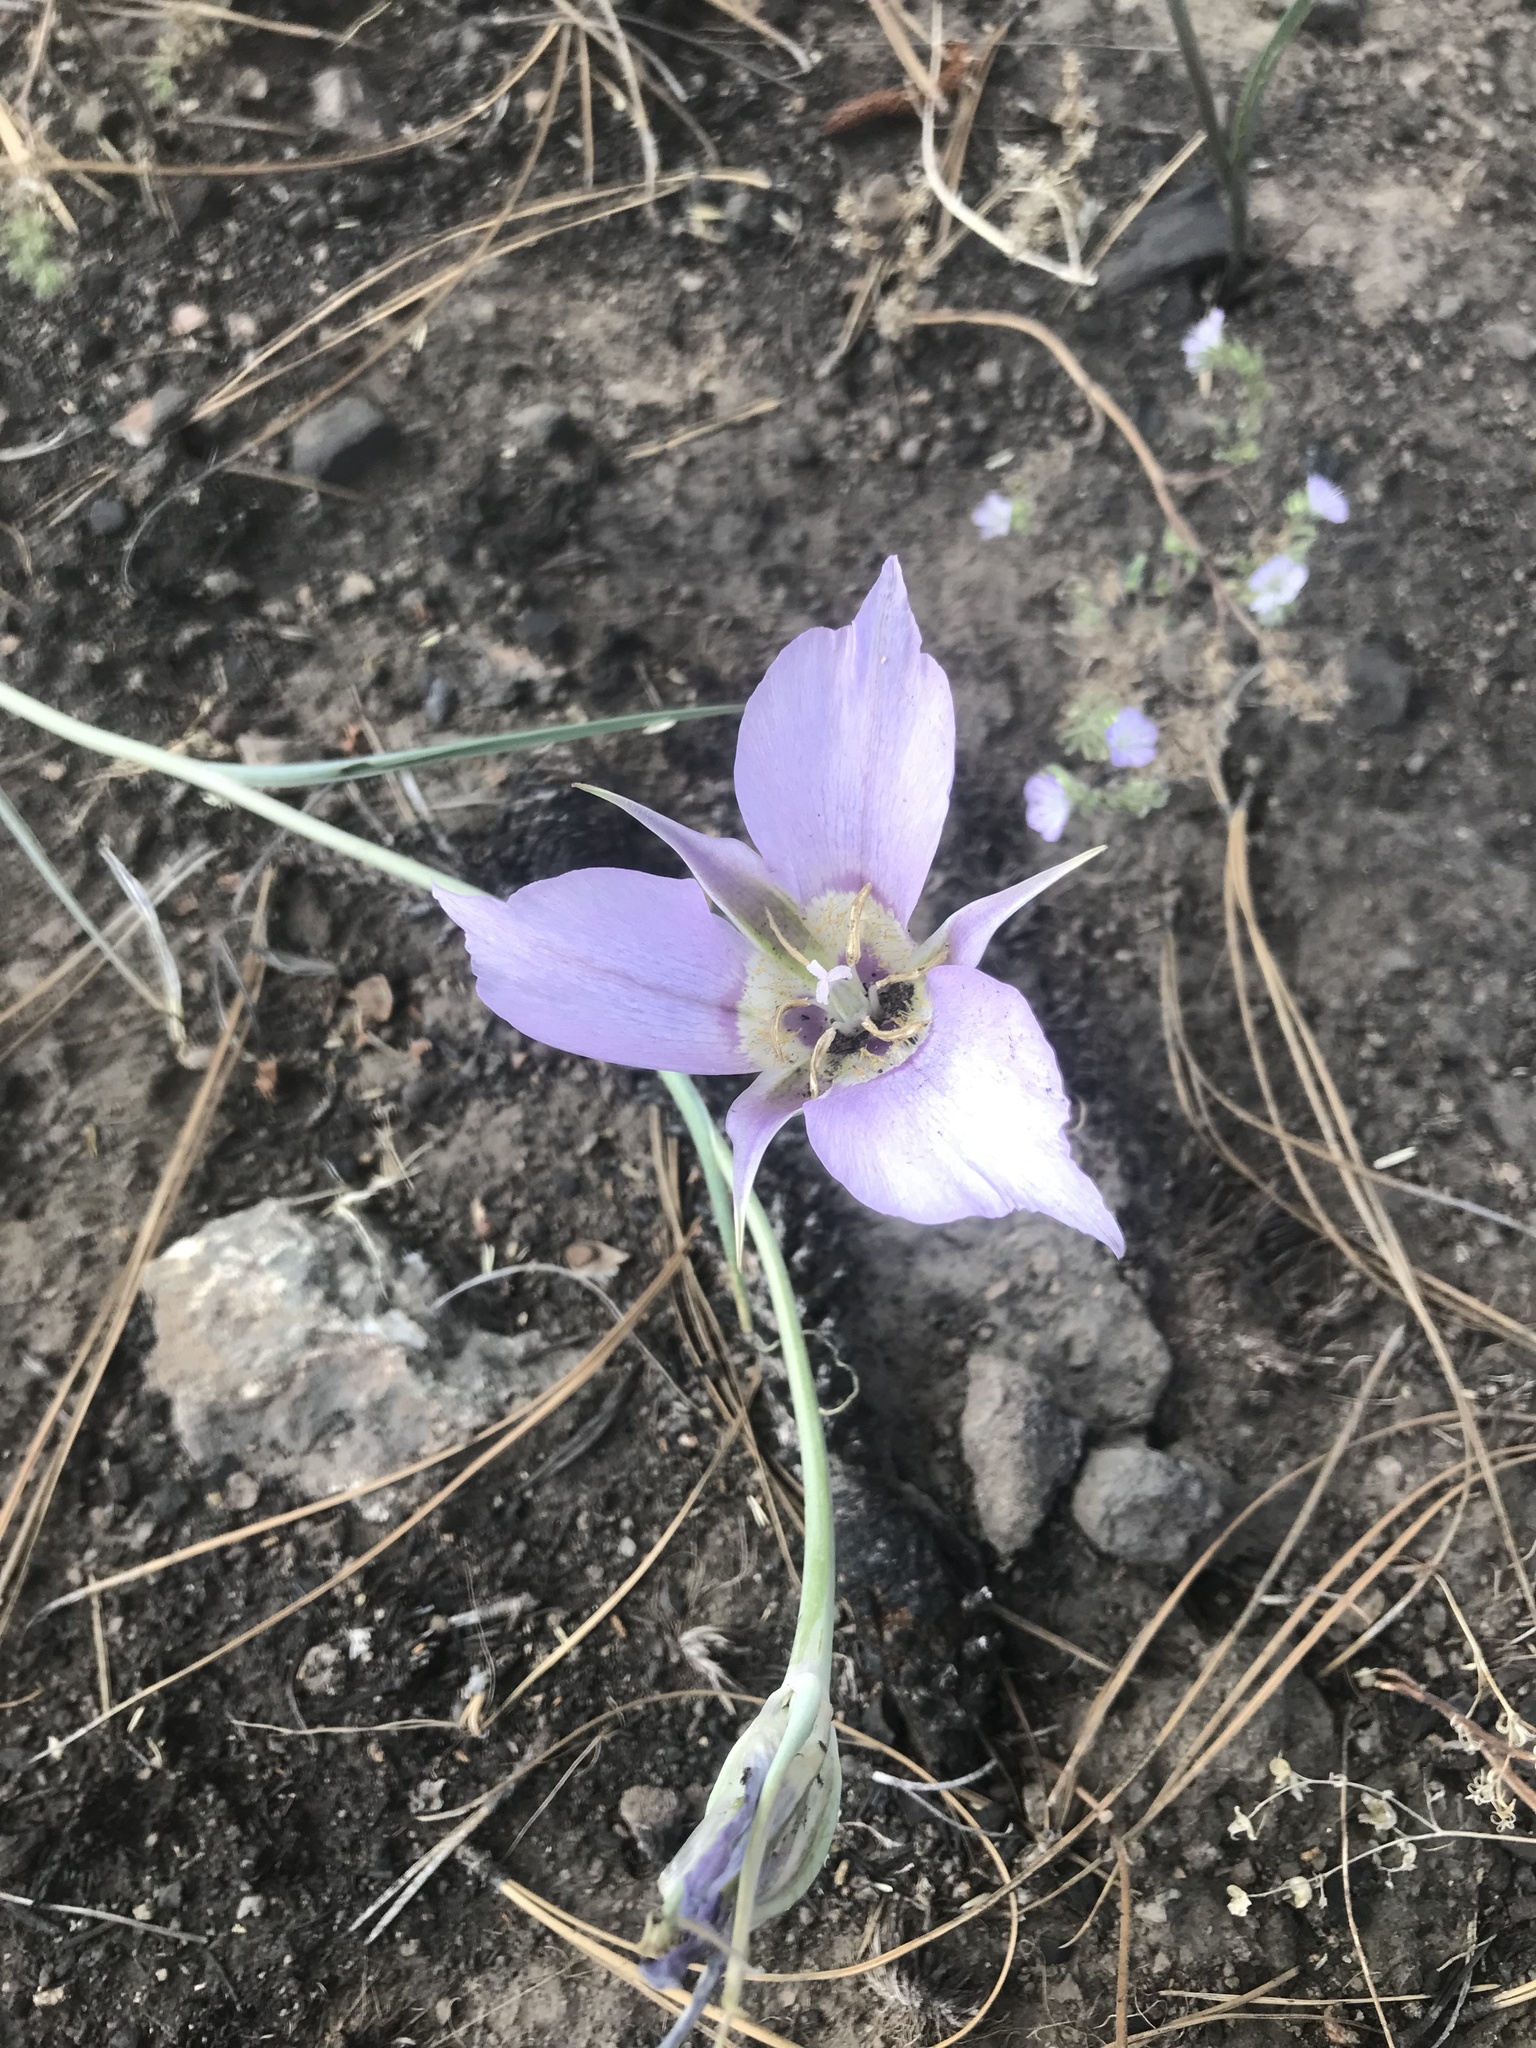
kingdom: Plantae
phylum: Tracheophyta
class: Liliopsida
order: Liliales
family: Liliaceae
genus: Calochortus
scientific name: Calochortus macrocarpus
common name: Green-band mariposa lily
